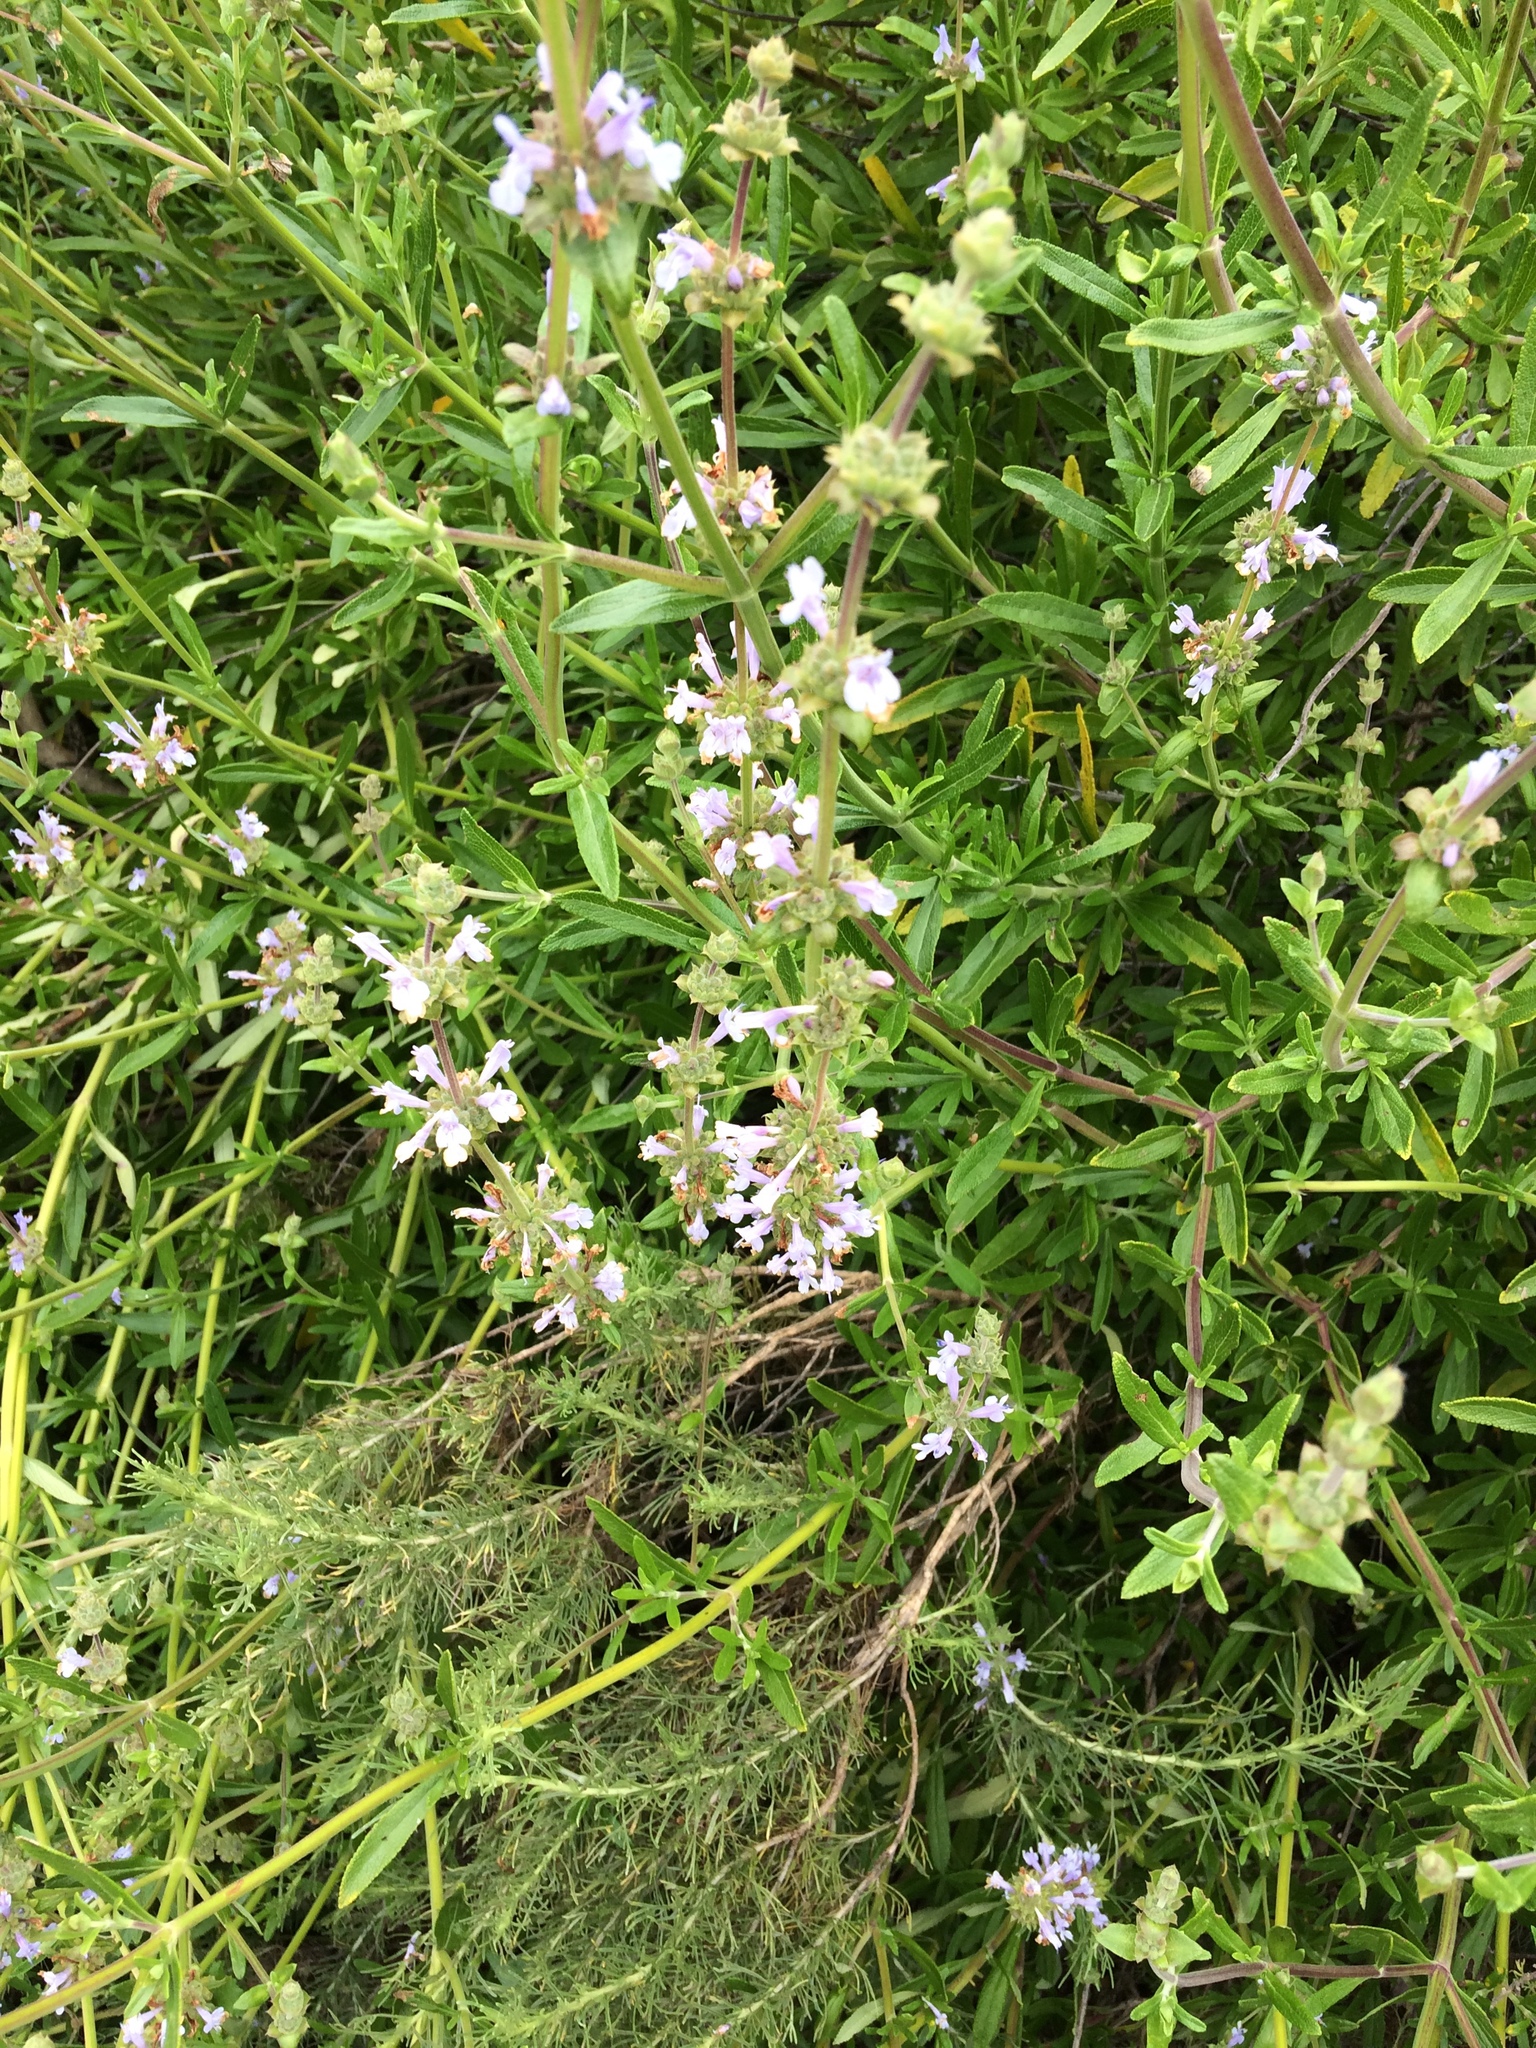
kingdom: Plantae
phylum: Tracheophyta
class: Magnoliopsida
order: Lamiales
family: Lamiaceae
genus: Salvia
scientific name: Salvia mellifera
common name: Black sage
